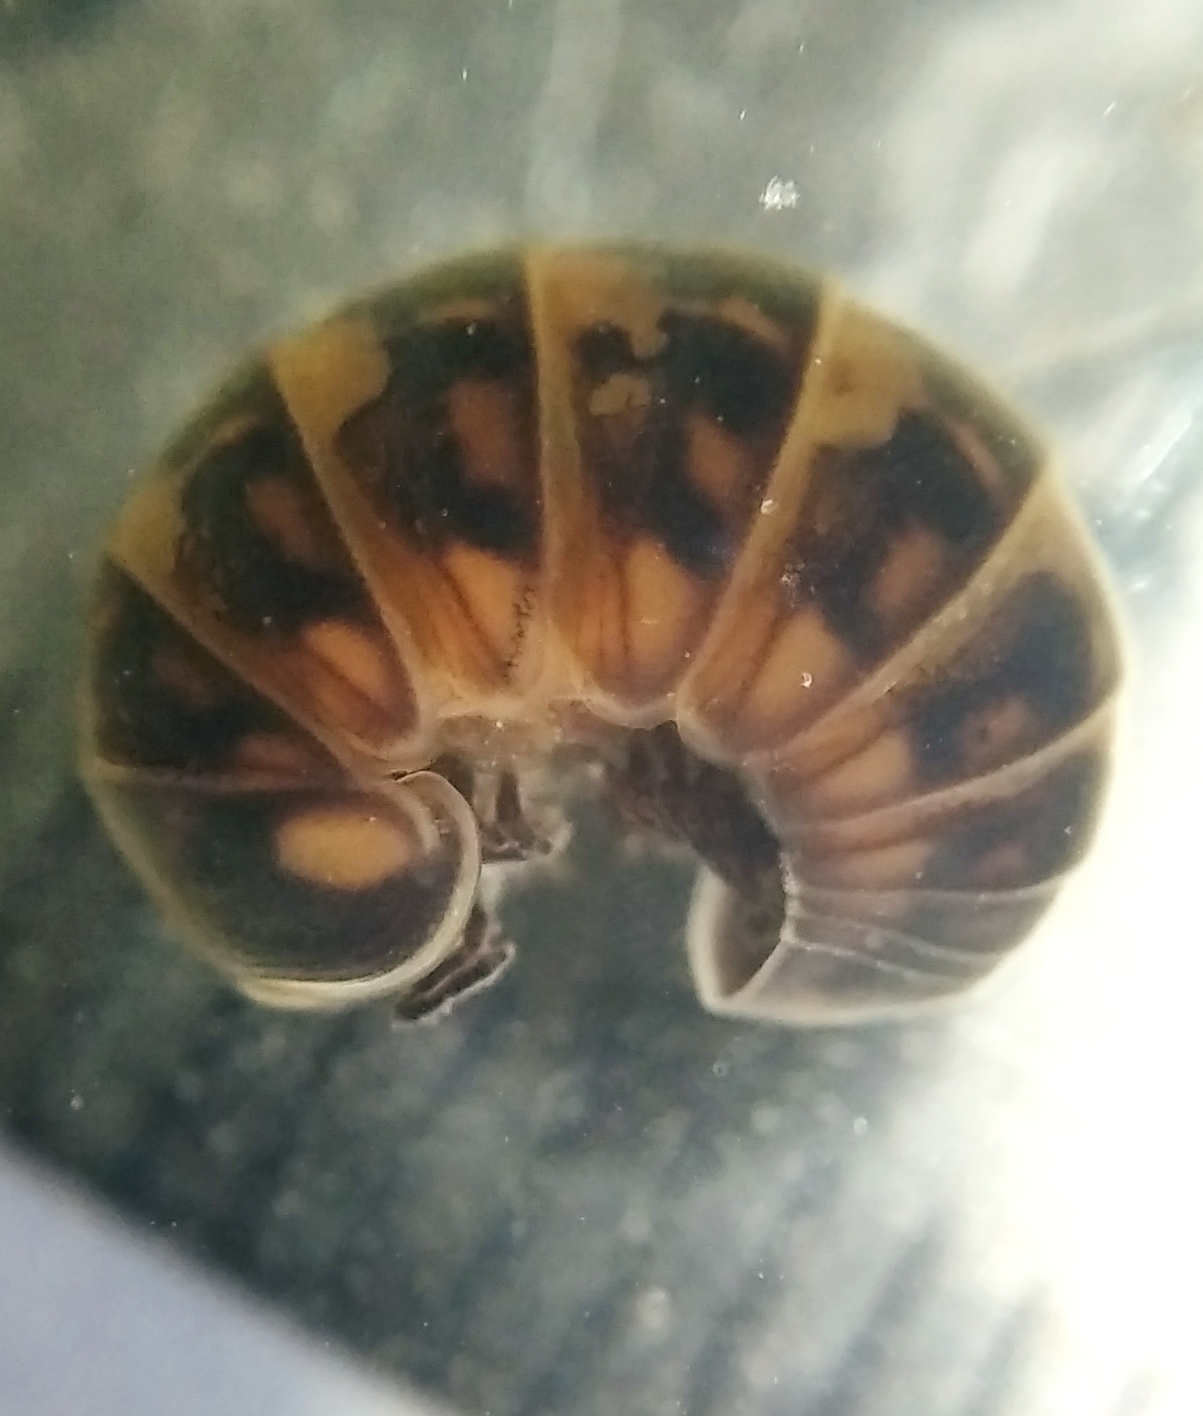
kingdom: Animalia
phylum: Arthropoda
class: Diplopoda
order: Glomerida
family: Glomeridae
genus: Glomeris
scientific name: Glomeris hexasticha
